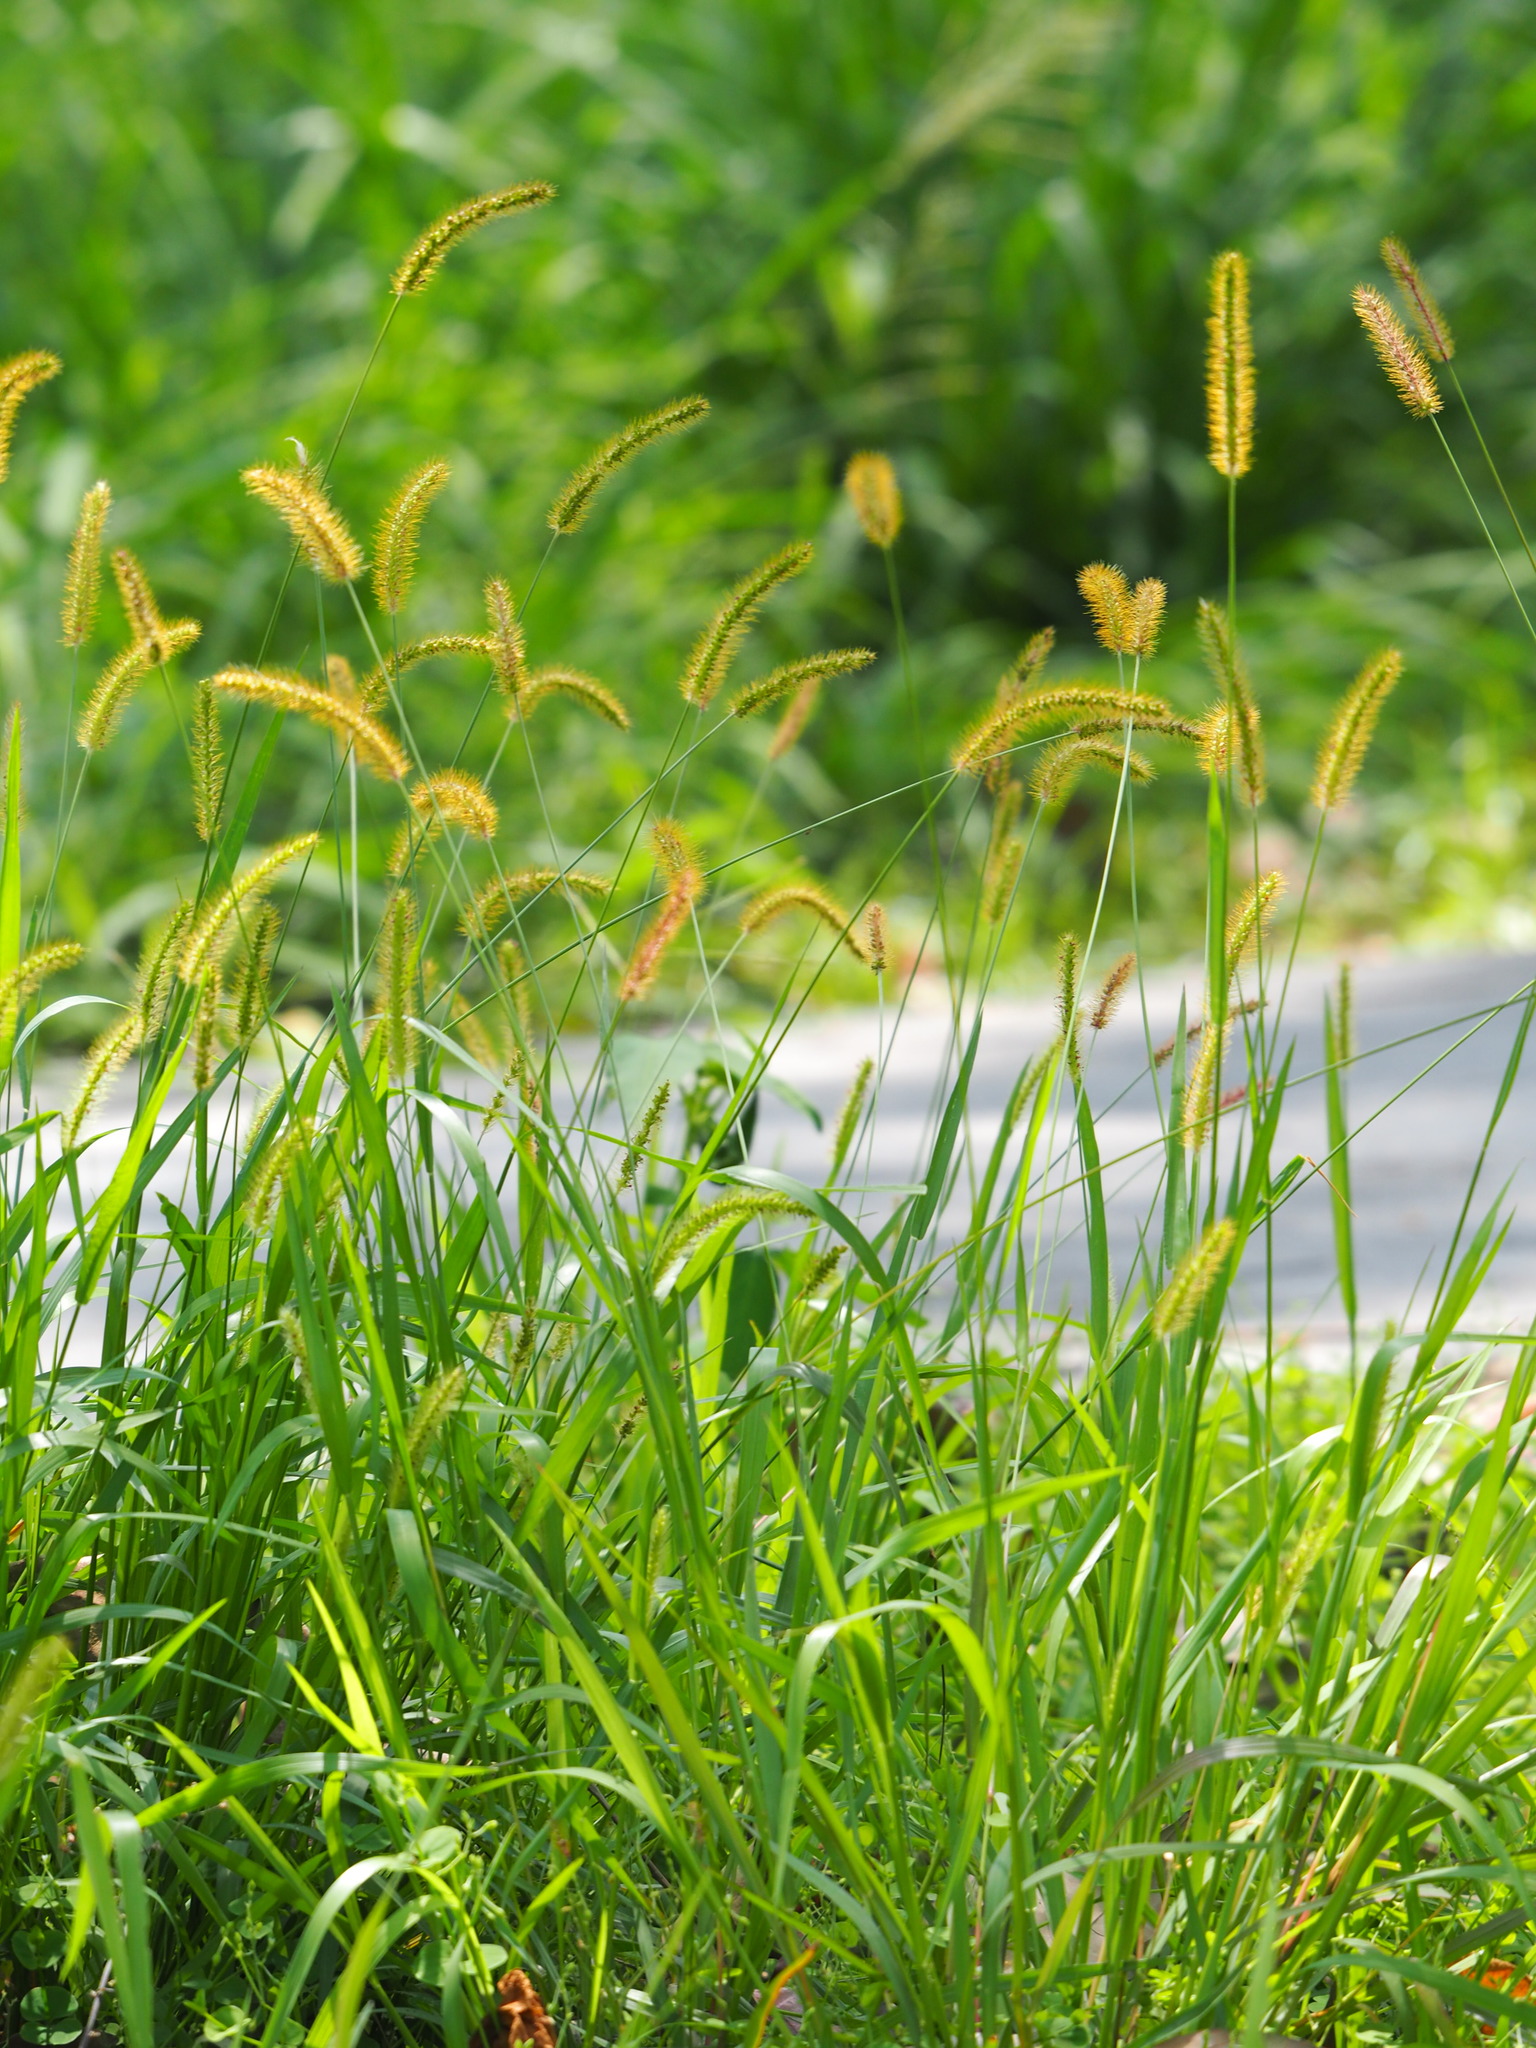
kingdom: Plantae
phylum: Tracheophyta
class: Liliopsida
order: Poales
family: Poaceae
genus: Setaria
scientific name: Setaria parviflora
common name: Knotroot bristle-grass
